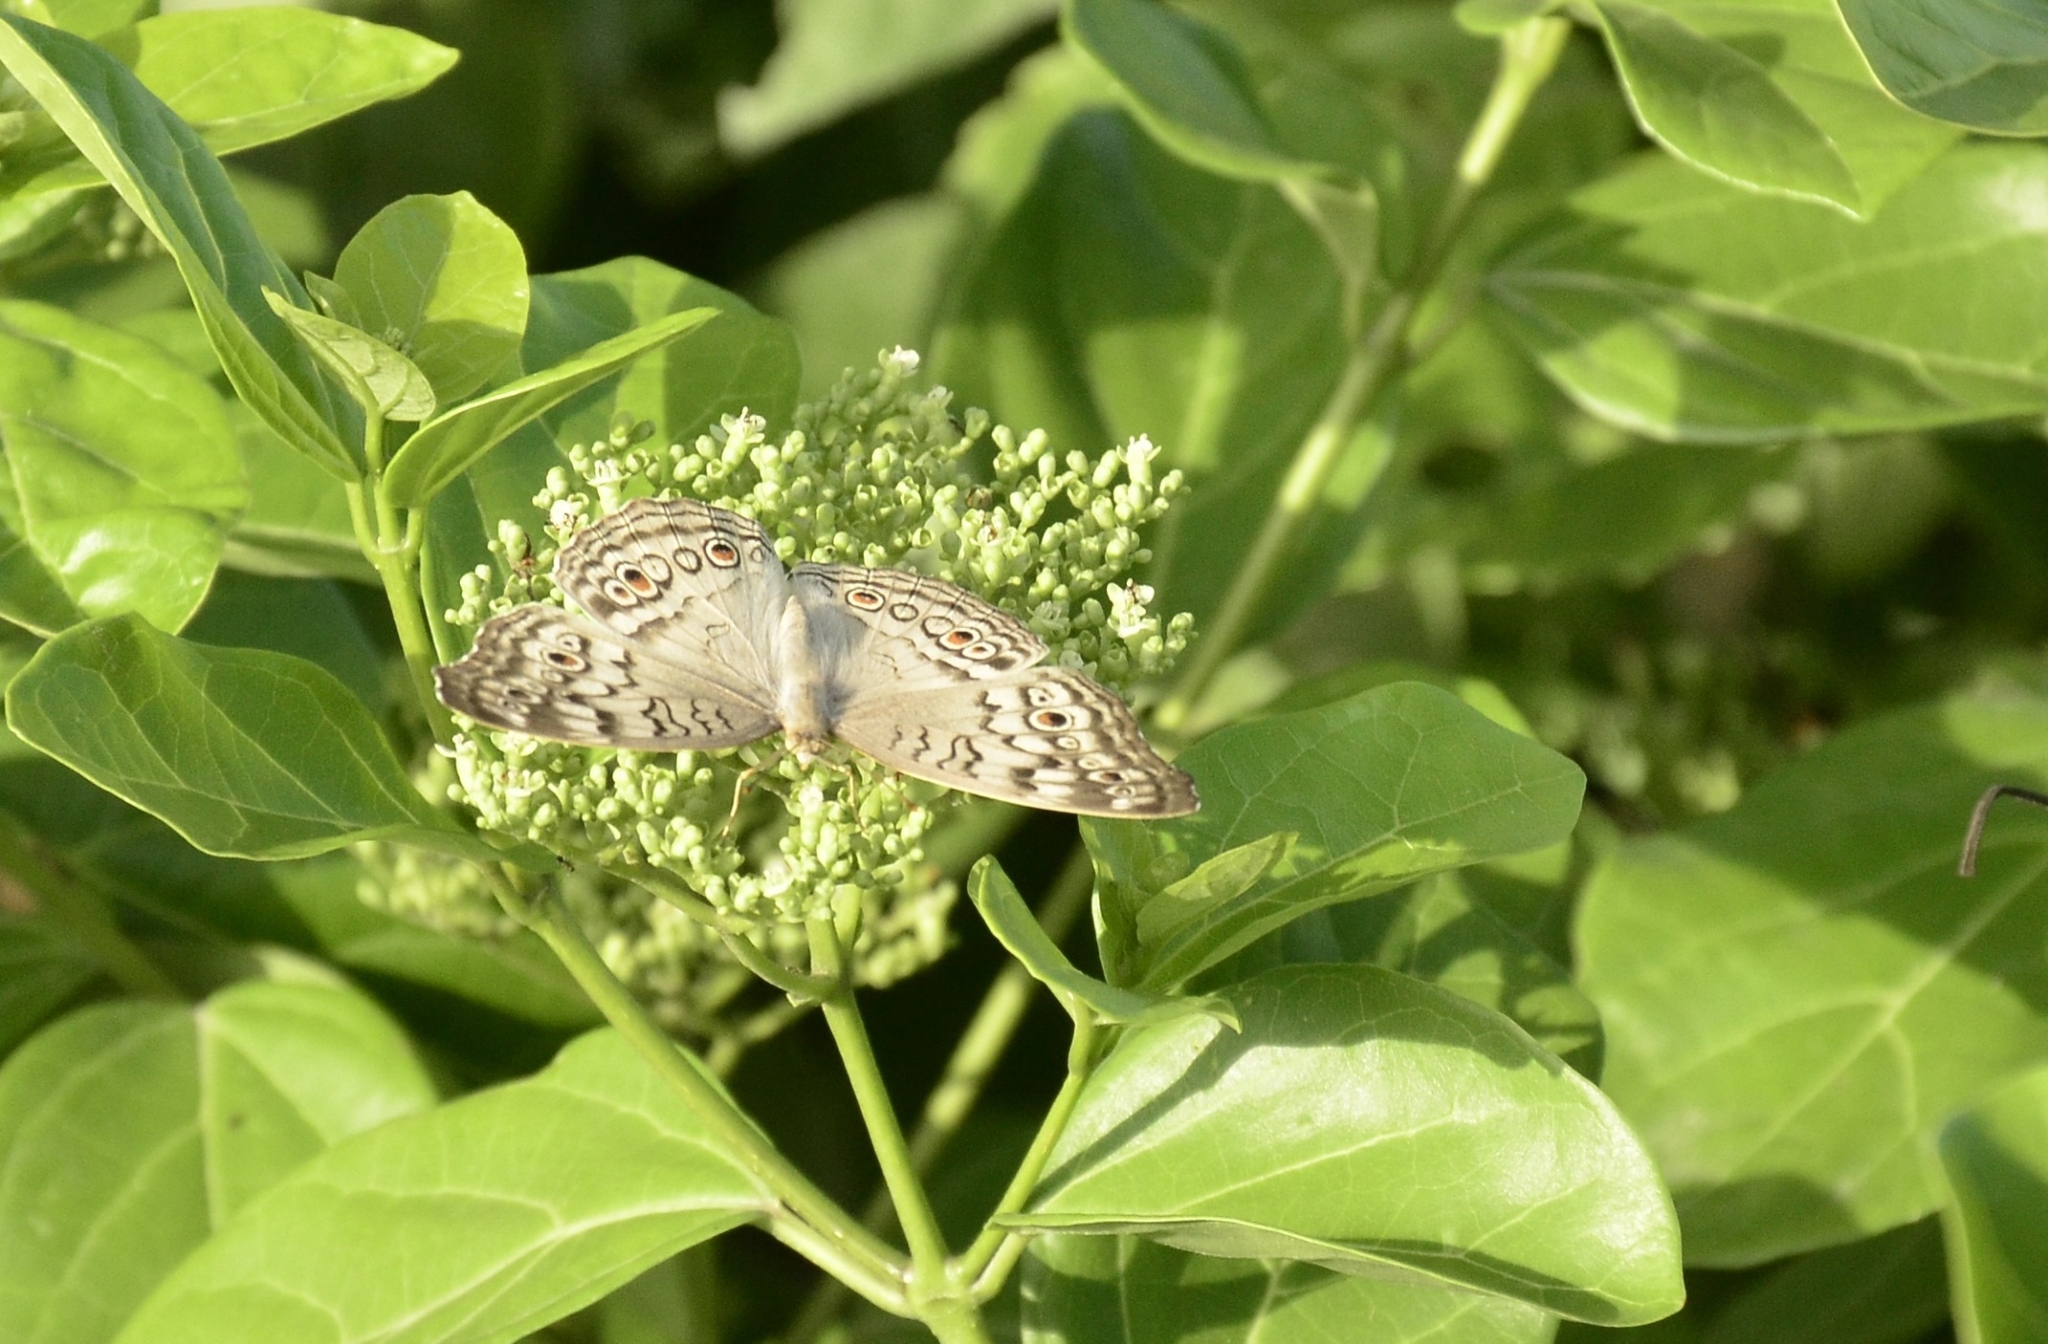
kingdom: Animalia
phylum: Arthropoda
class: Insecta
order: Lepidoptera
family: Nymphalidae
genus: Junonia
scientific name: Junonia atlites
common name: Grey pansy
